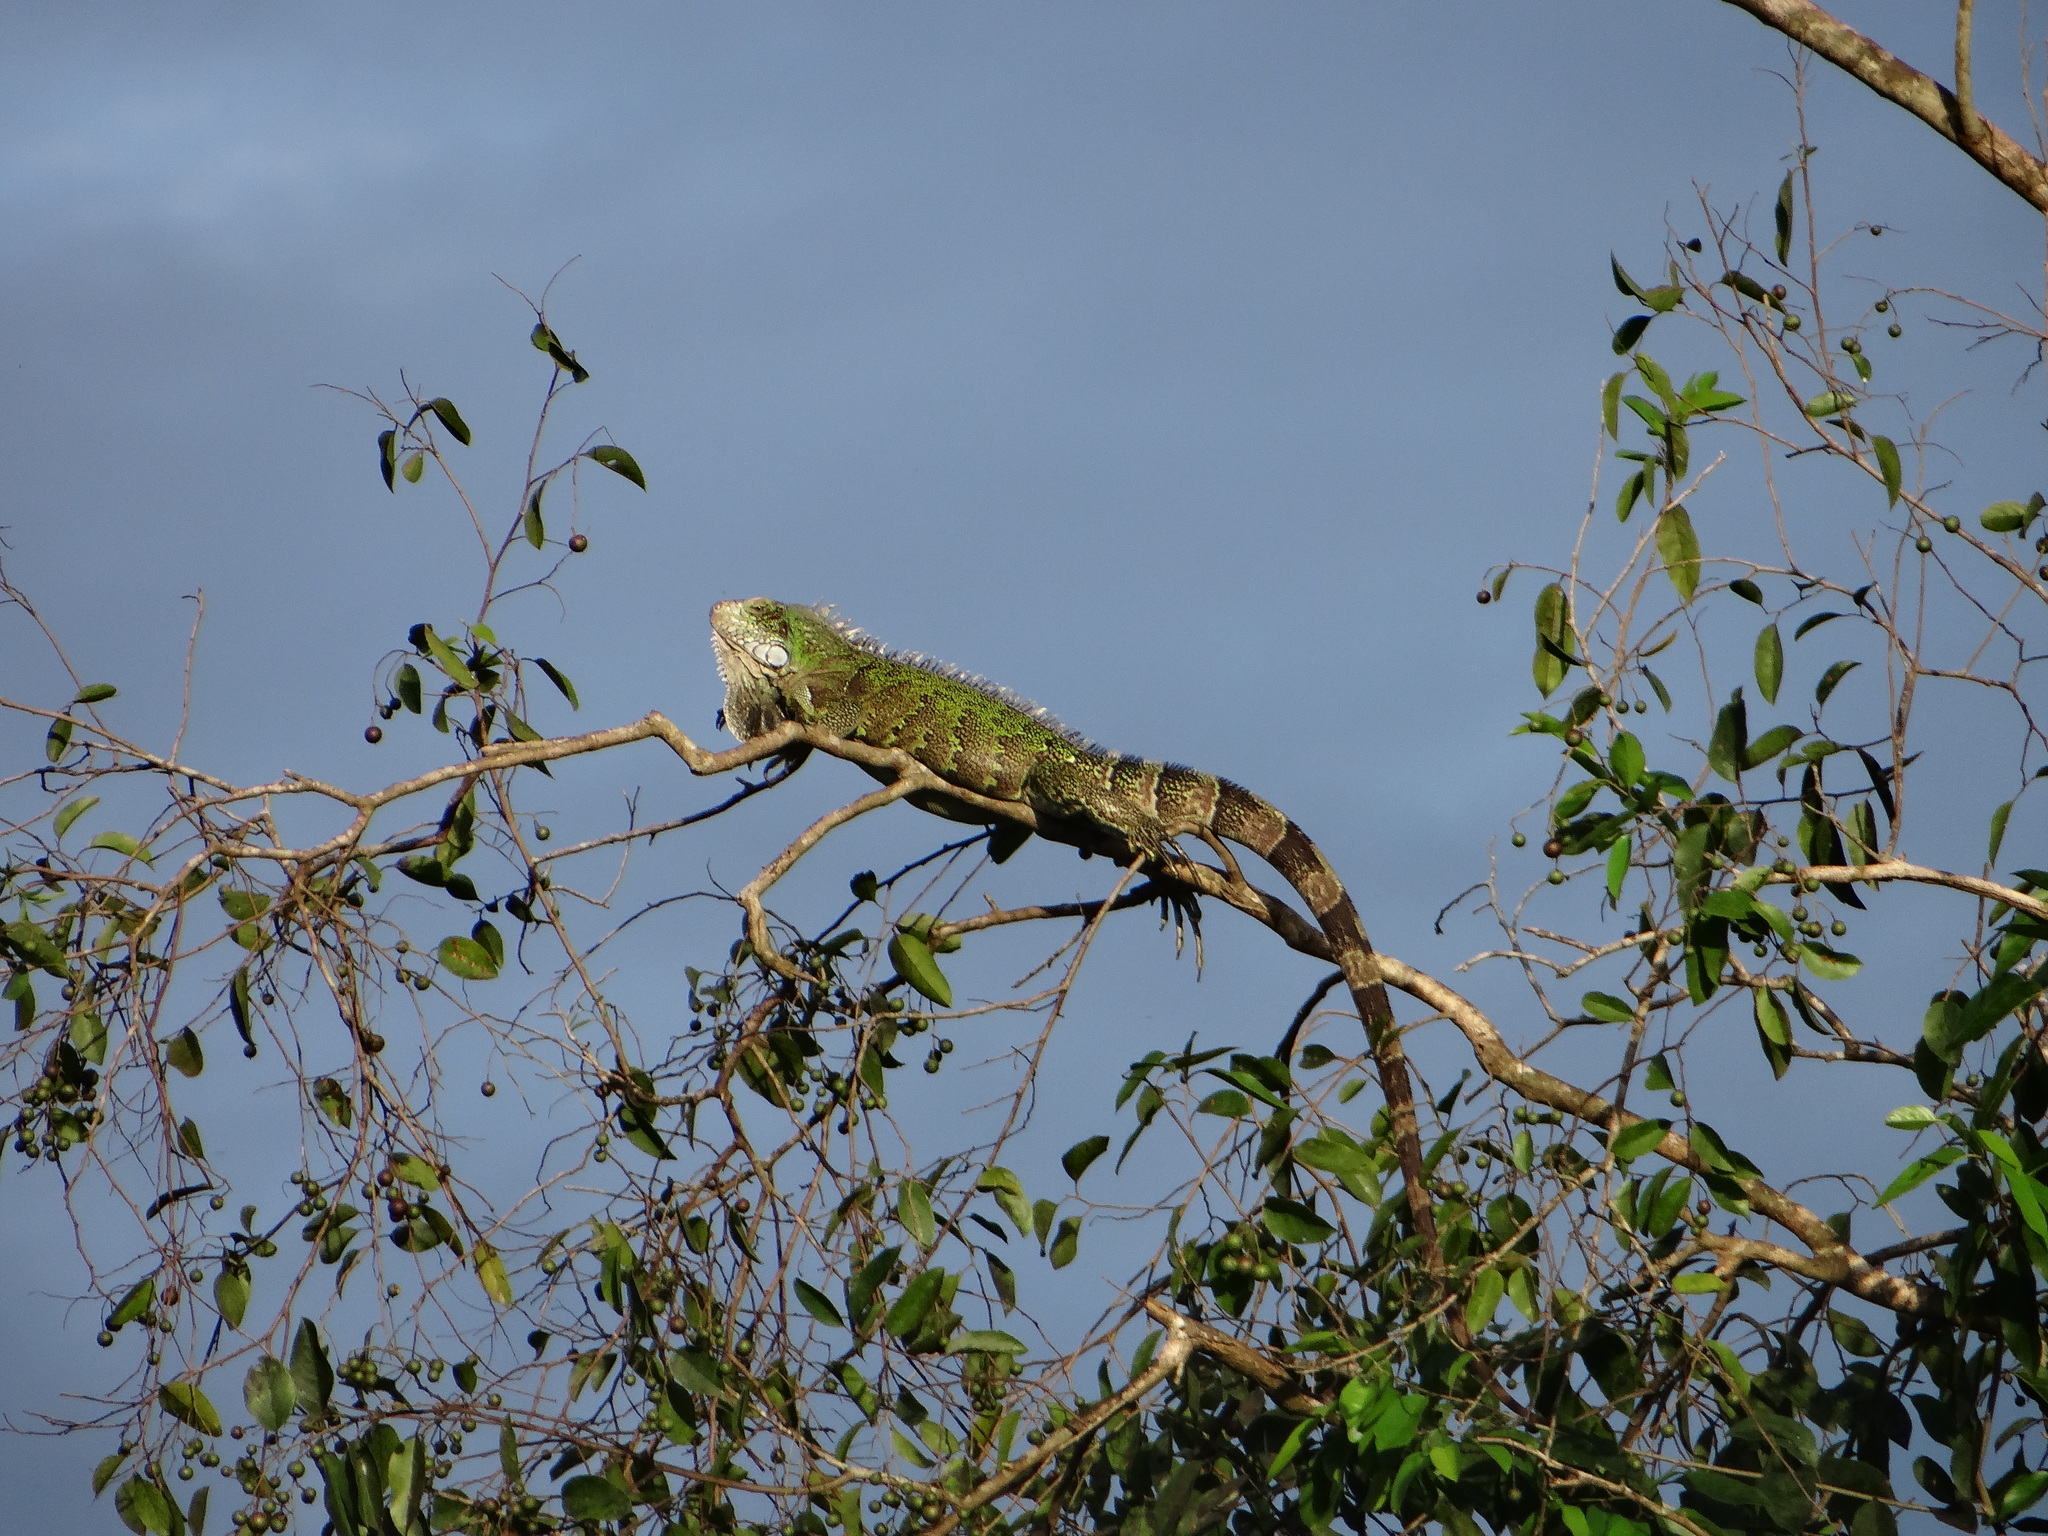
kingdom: Animalia
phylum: Chordata
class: Squamata
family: Iguanidae
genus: Iguana
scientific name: Iguana iguana
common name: Green iguana
